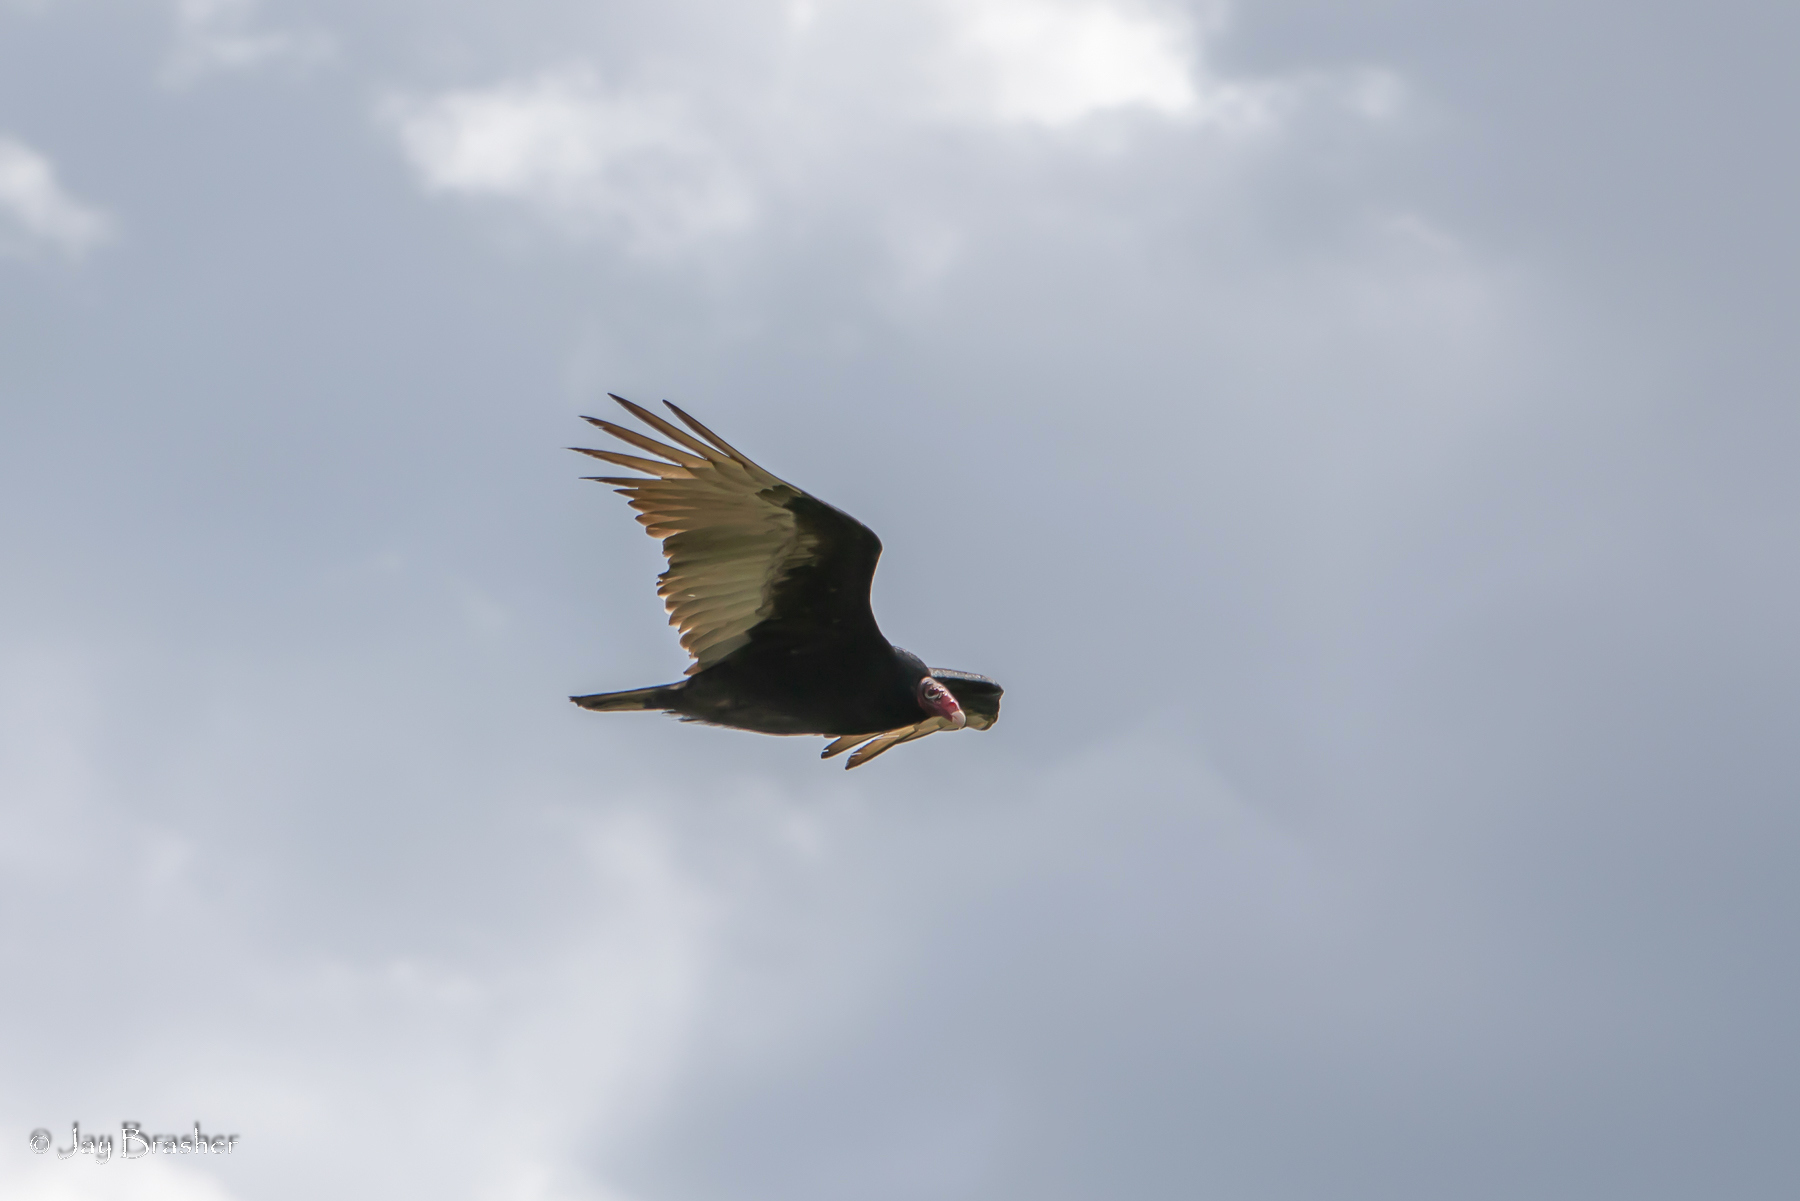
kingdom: Animalia
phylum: Chordata
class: Aves
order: Accipitriformes
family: Cathartidae
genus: Cathartes
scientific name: Cathartes aura
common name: Turkey vulture
